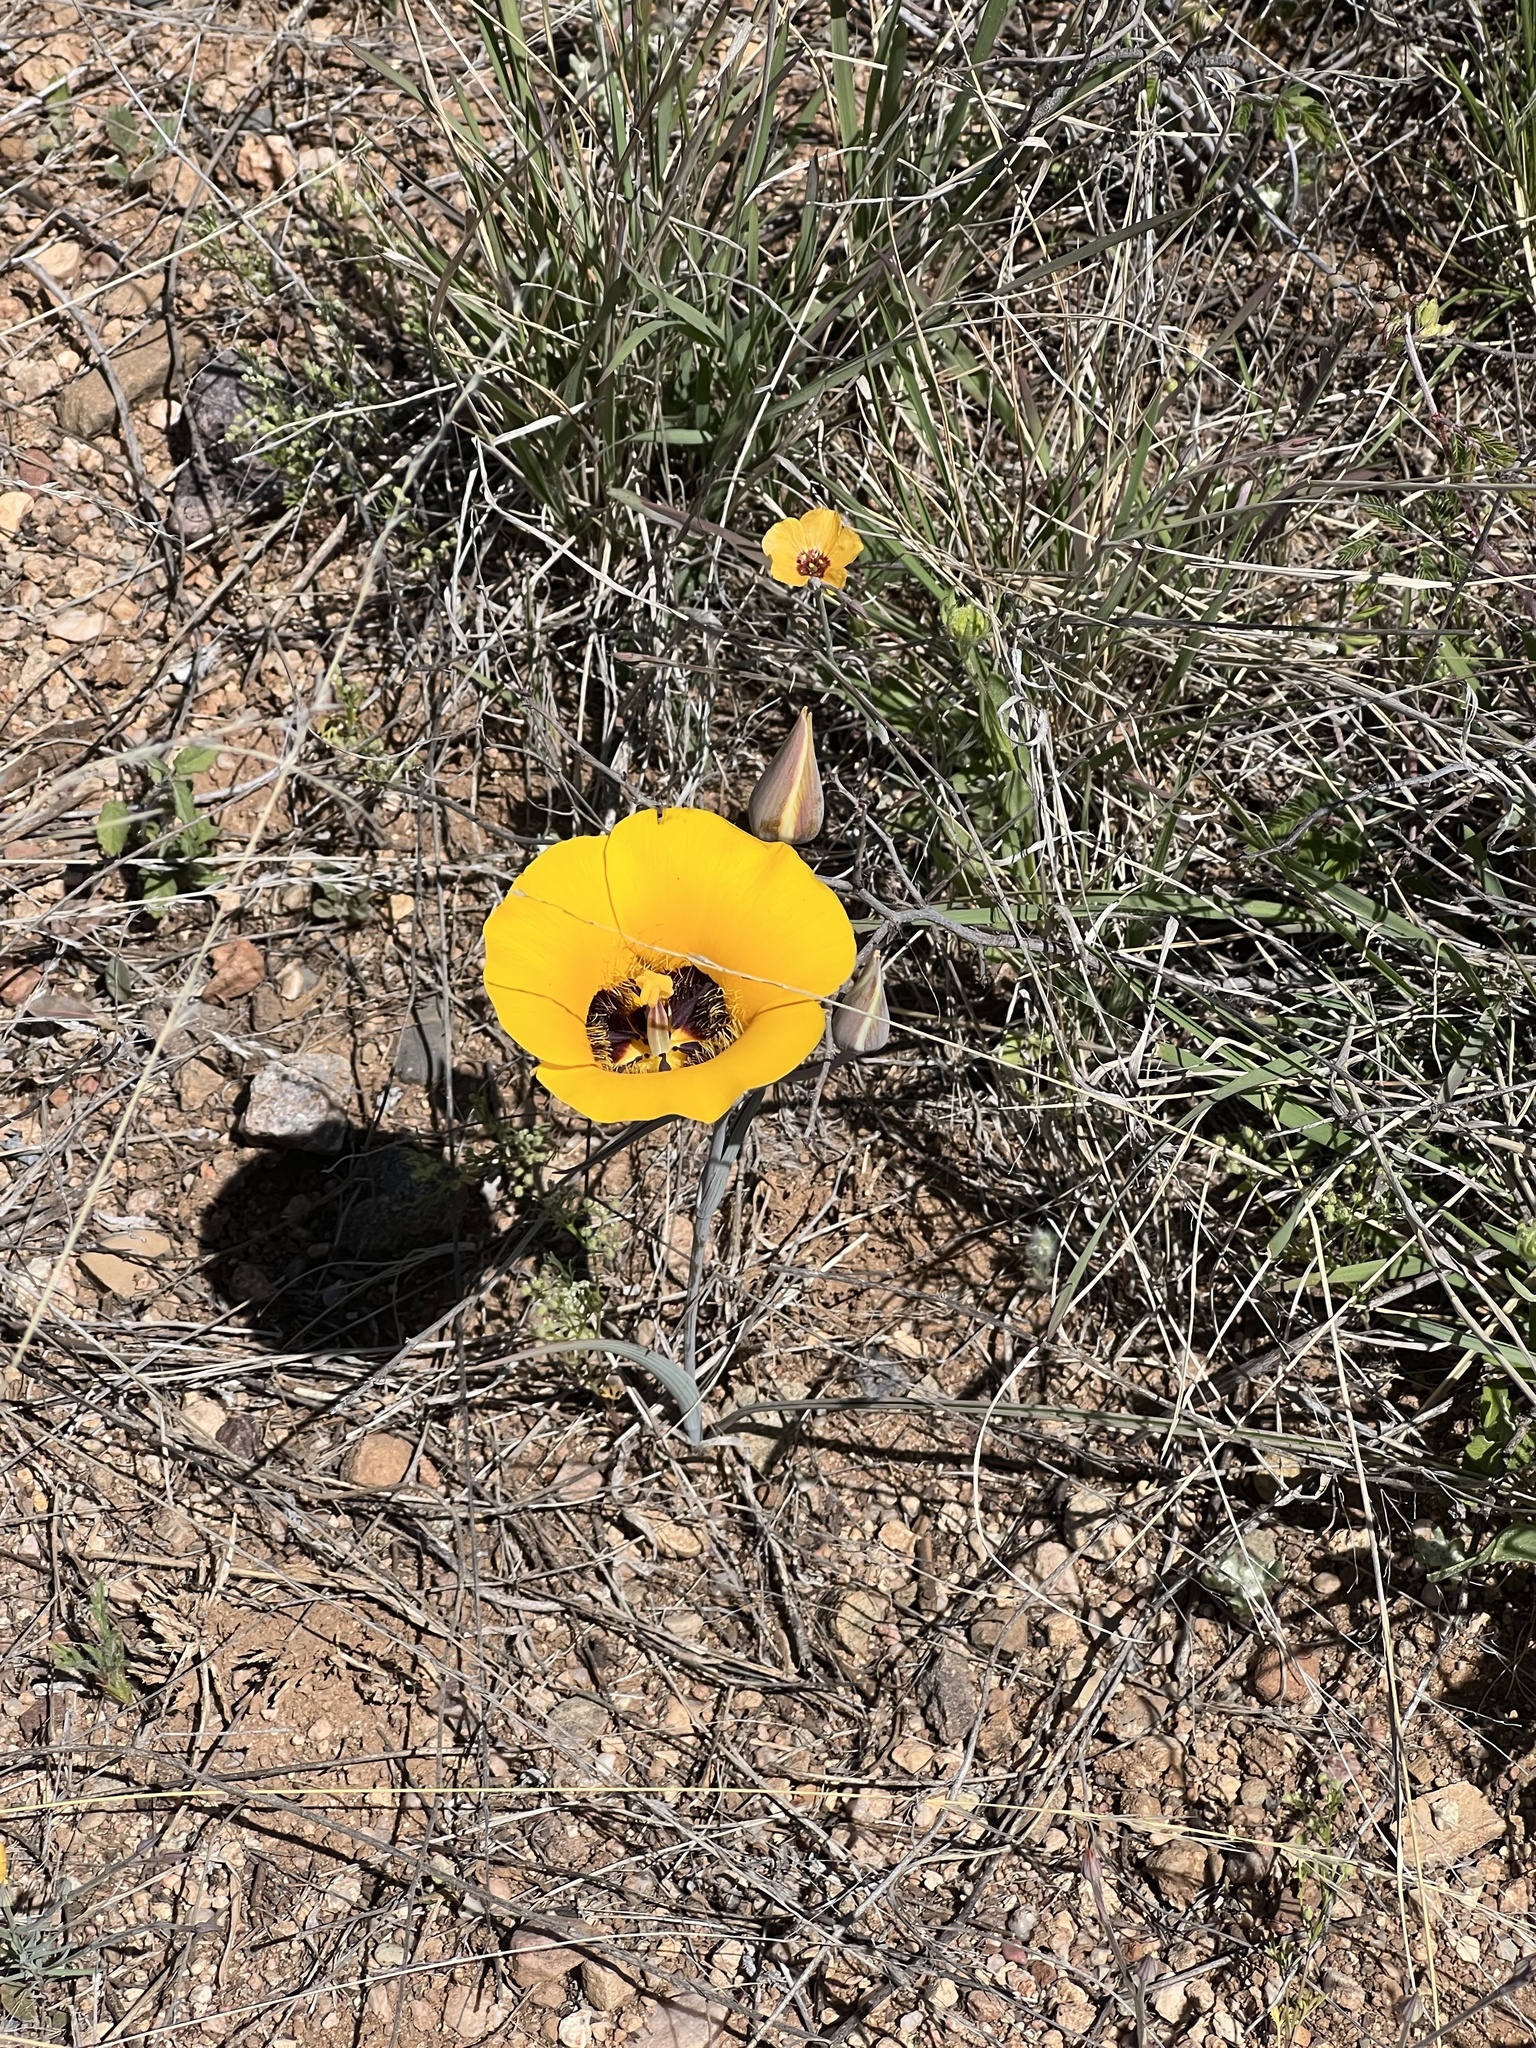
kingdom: Plantae
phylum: Tracheophyta
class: Liliopsida
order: Liliales
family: Liliaceae
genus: Calochortus
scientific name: Calochortus kennedyi
